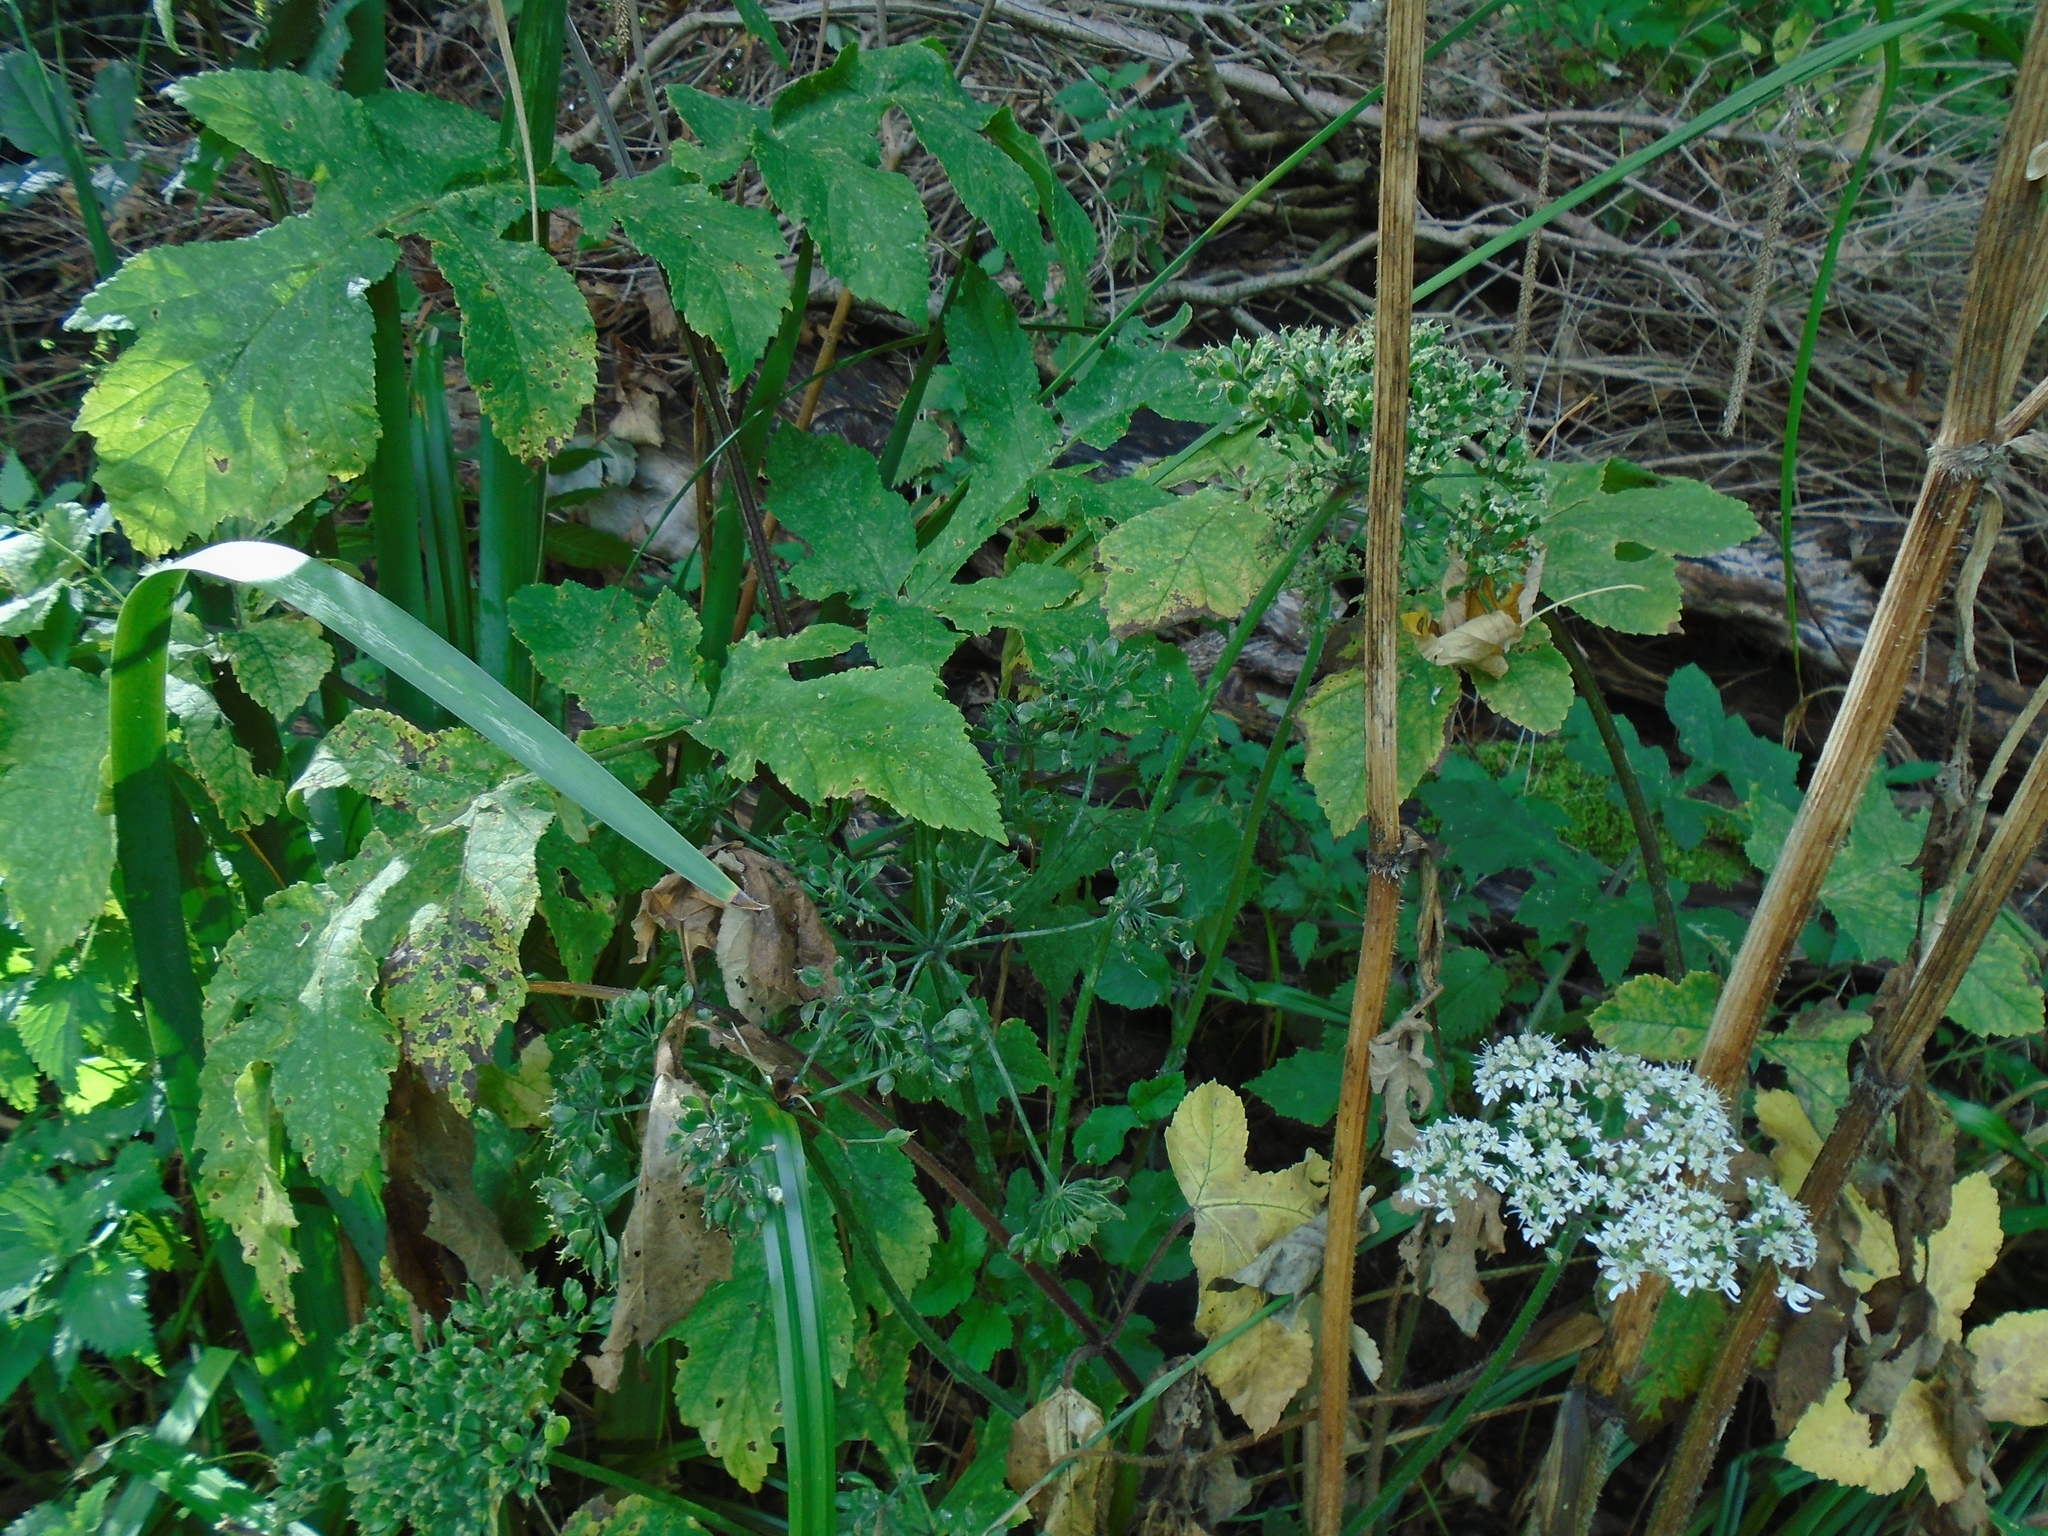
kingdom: Plantae
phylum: Tracheophyta
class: Magnoliopsida
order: Apiales
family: Apiaceae
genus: Heracleum
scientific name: Heracleum sphondylium
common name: Hogweed
